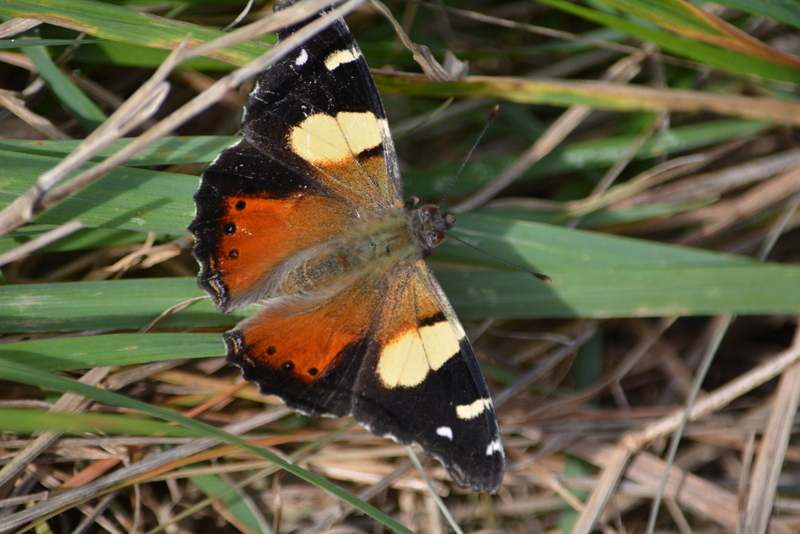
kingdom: Animalia
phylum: Arthropoda
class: Insecta
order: Lepidoptera
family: Nymphalidae
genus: Vanessa
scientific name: Vanessa itea
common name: Yellow admiral
